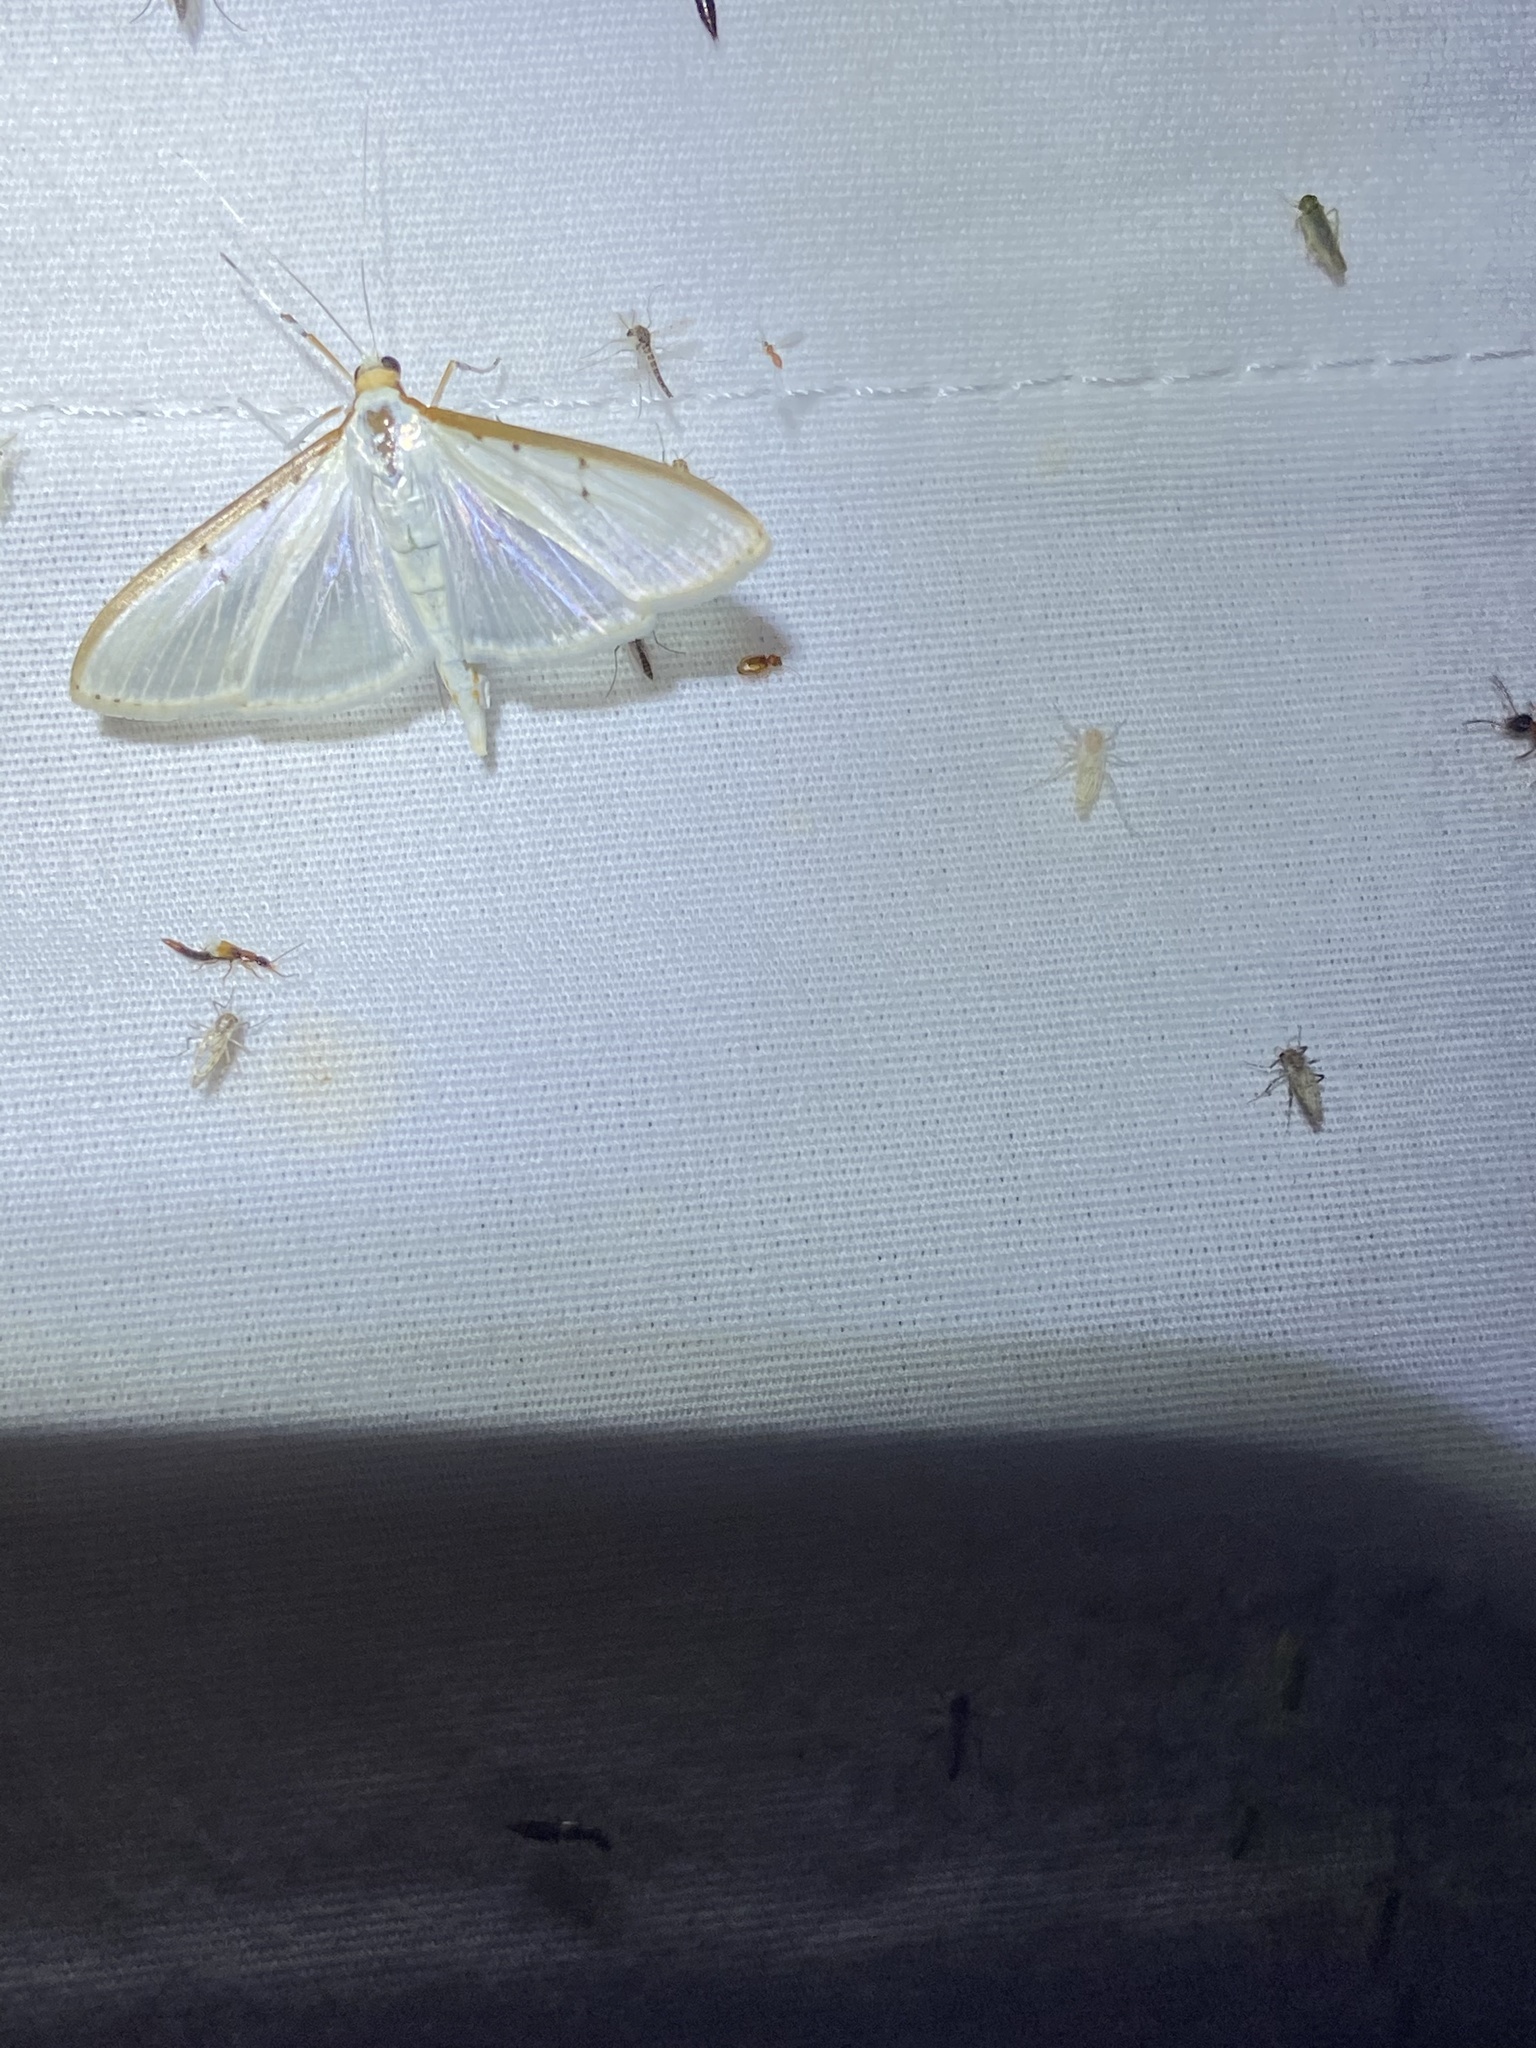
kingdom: Animalia
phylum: Arthropoda
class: Insecta
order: Lepidoptera
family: Crambidae
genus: Palpita
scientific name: Palpita quadristigmalis
